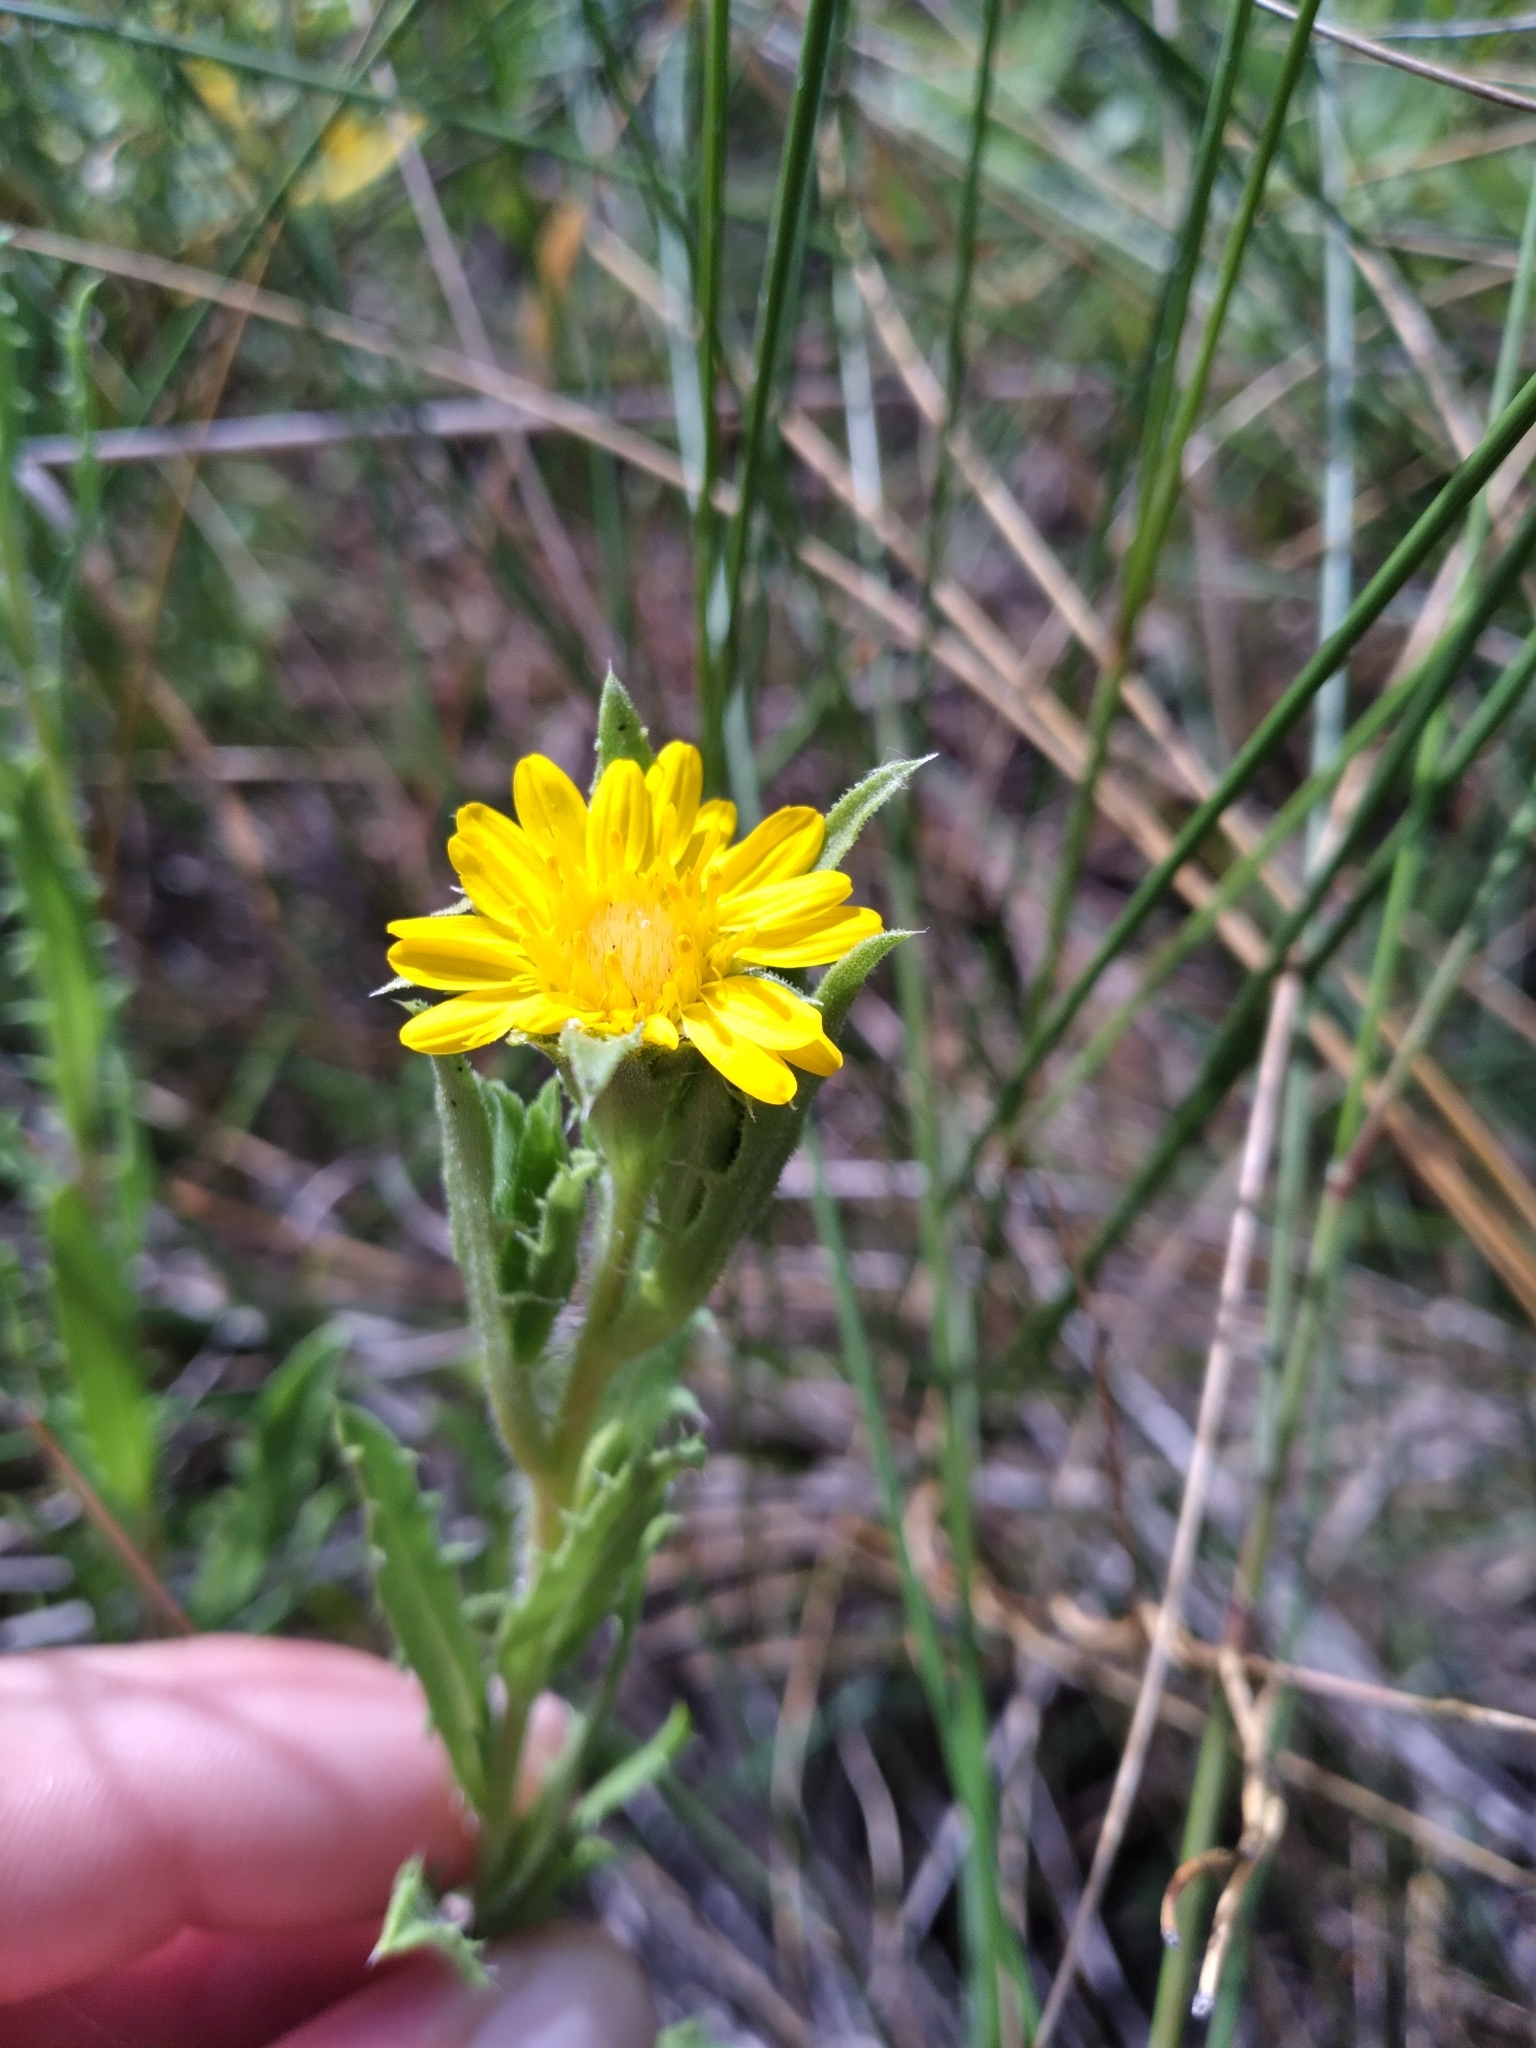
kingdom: Plantae
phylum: Tracheophyta
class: Magnoliopsida
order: Asterales
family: Asteraceae
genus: Rayjacksonia
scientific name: Rayjacksonia phyllocephala
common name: Gulf coast camphor daisy
